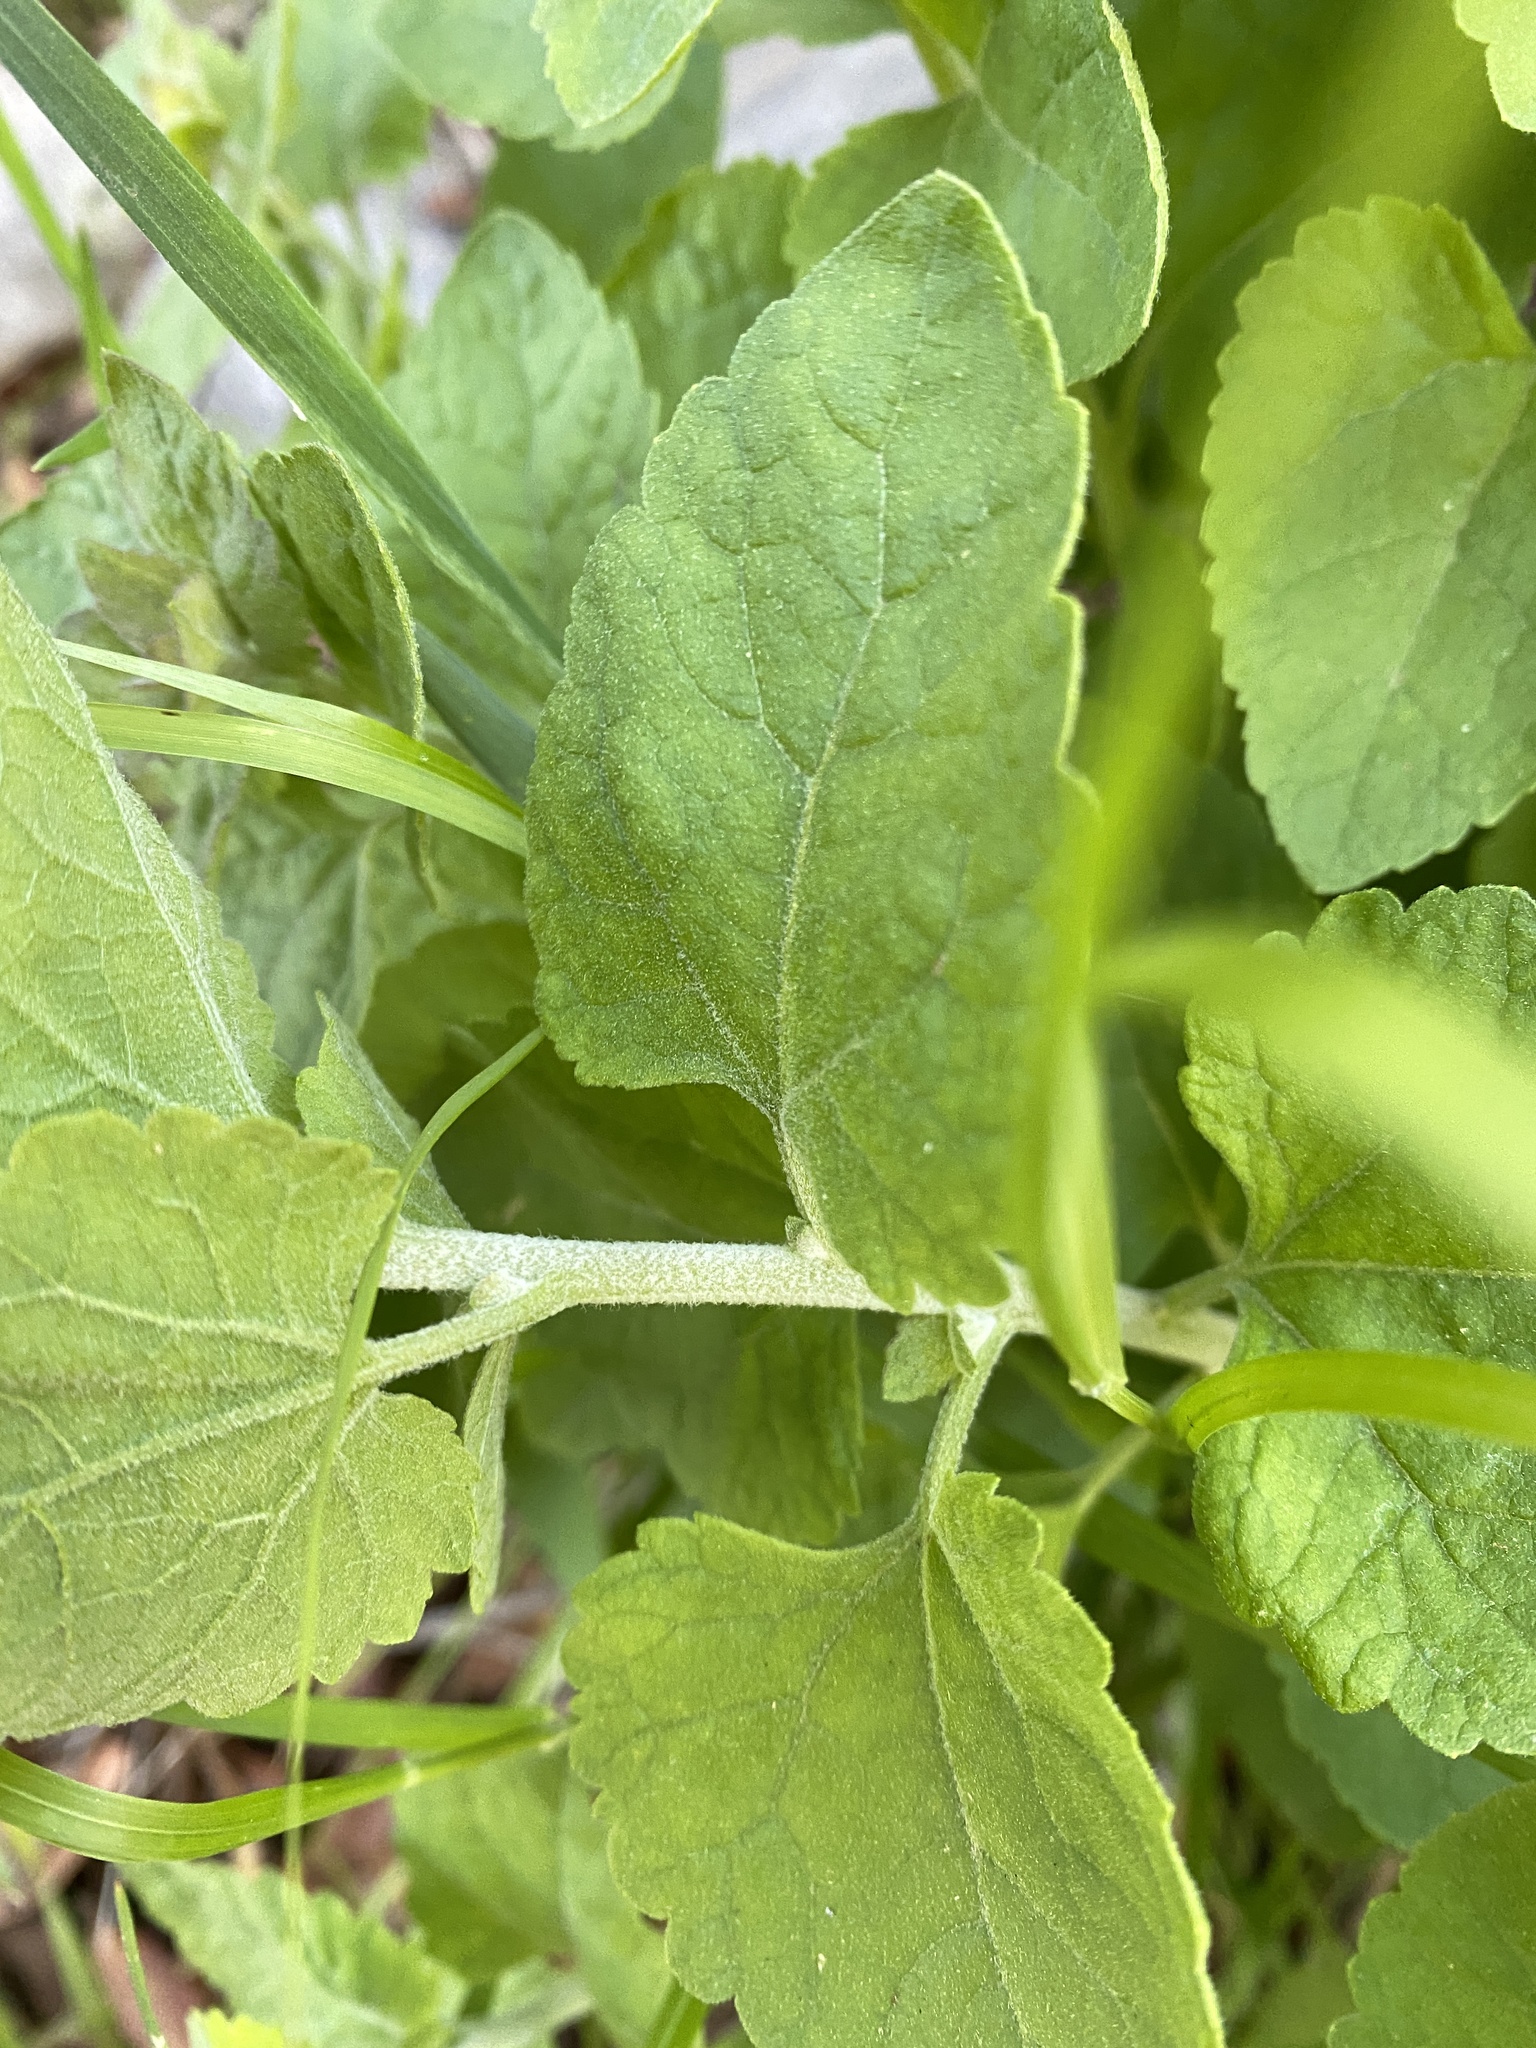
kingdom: Plantae
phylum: Tracheophyta
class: Magnoliopsida
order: Asterales
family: Asteraceae
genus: Brickellia
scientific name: Brickellia californica
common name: California brickellbush
